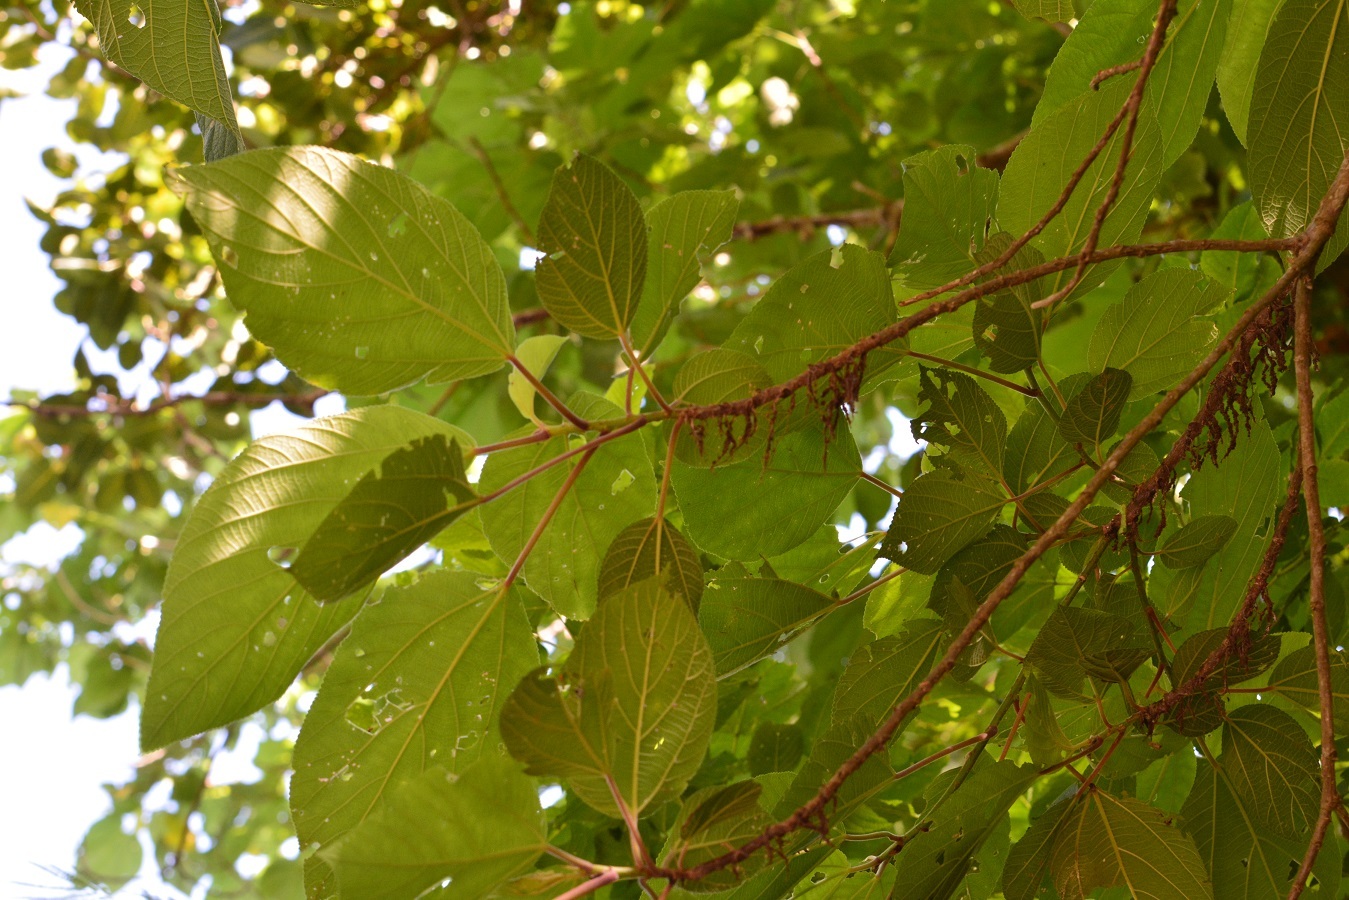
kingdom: Plantae
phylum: Tracheophyta
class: Magnoliopsida
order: Rosales
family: Urticaceae
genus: Myriocarpa
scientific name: Myriocarpa bifurca
